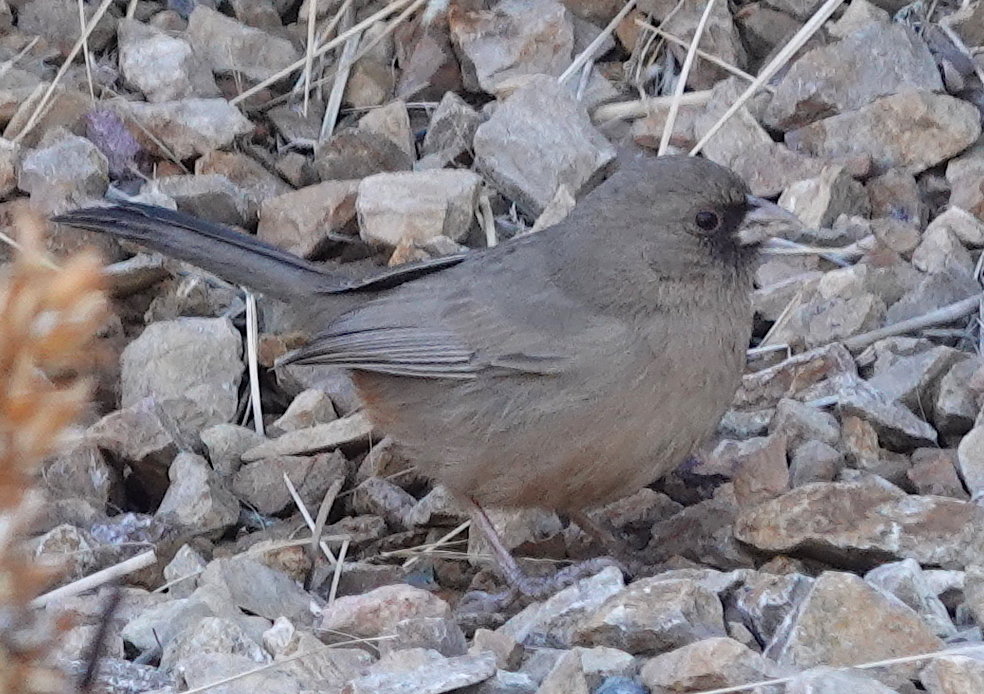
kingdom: Animalia
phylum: Chordata
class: Aves
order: Passeriformes
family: Passerellidae
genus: Melozone
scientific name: Melozone aberti
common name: Abert's towhee
